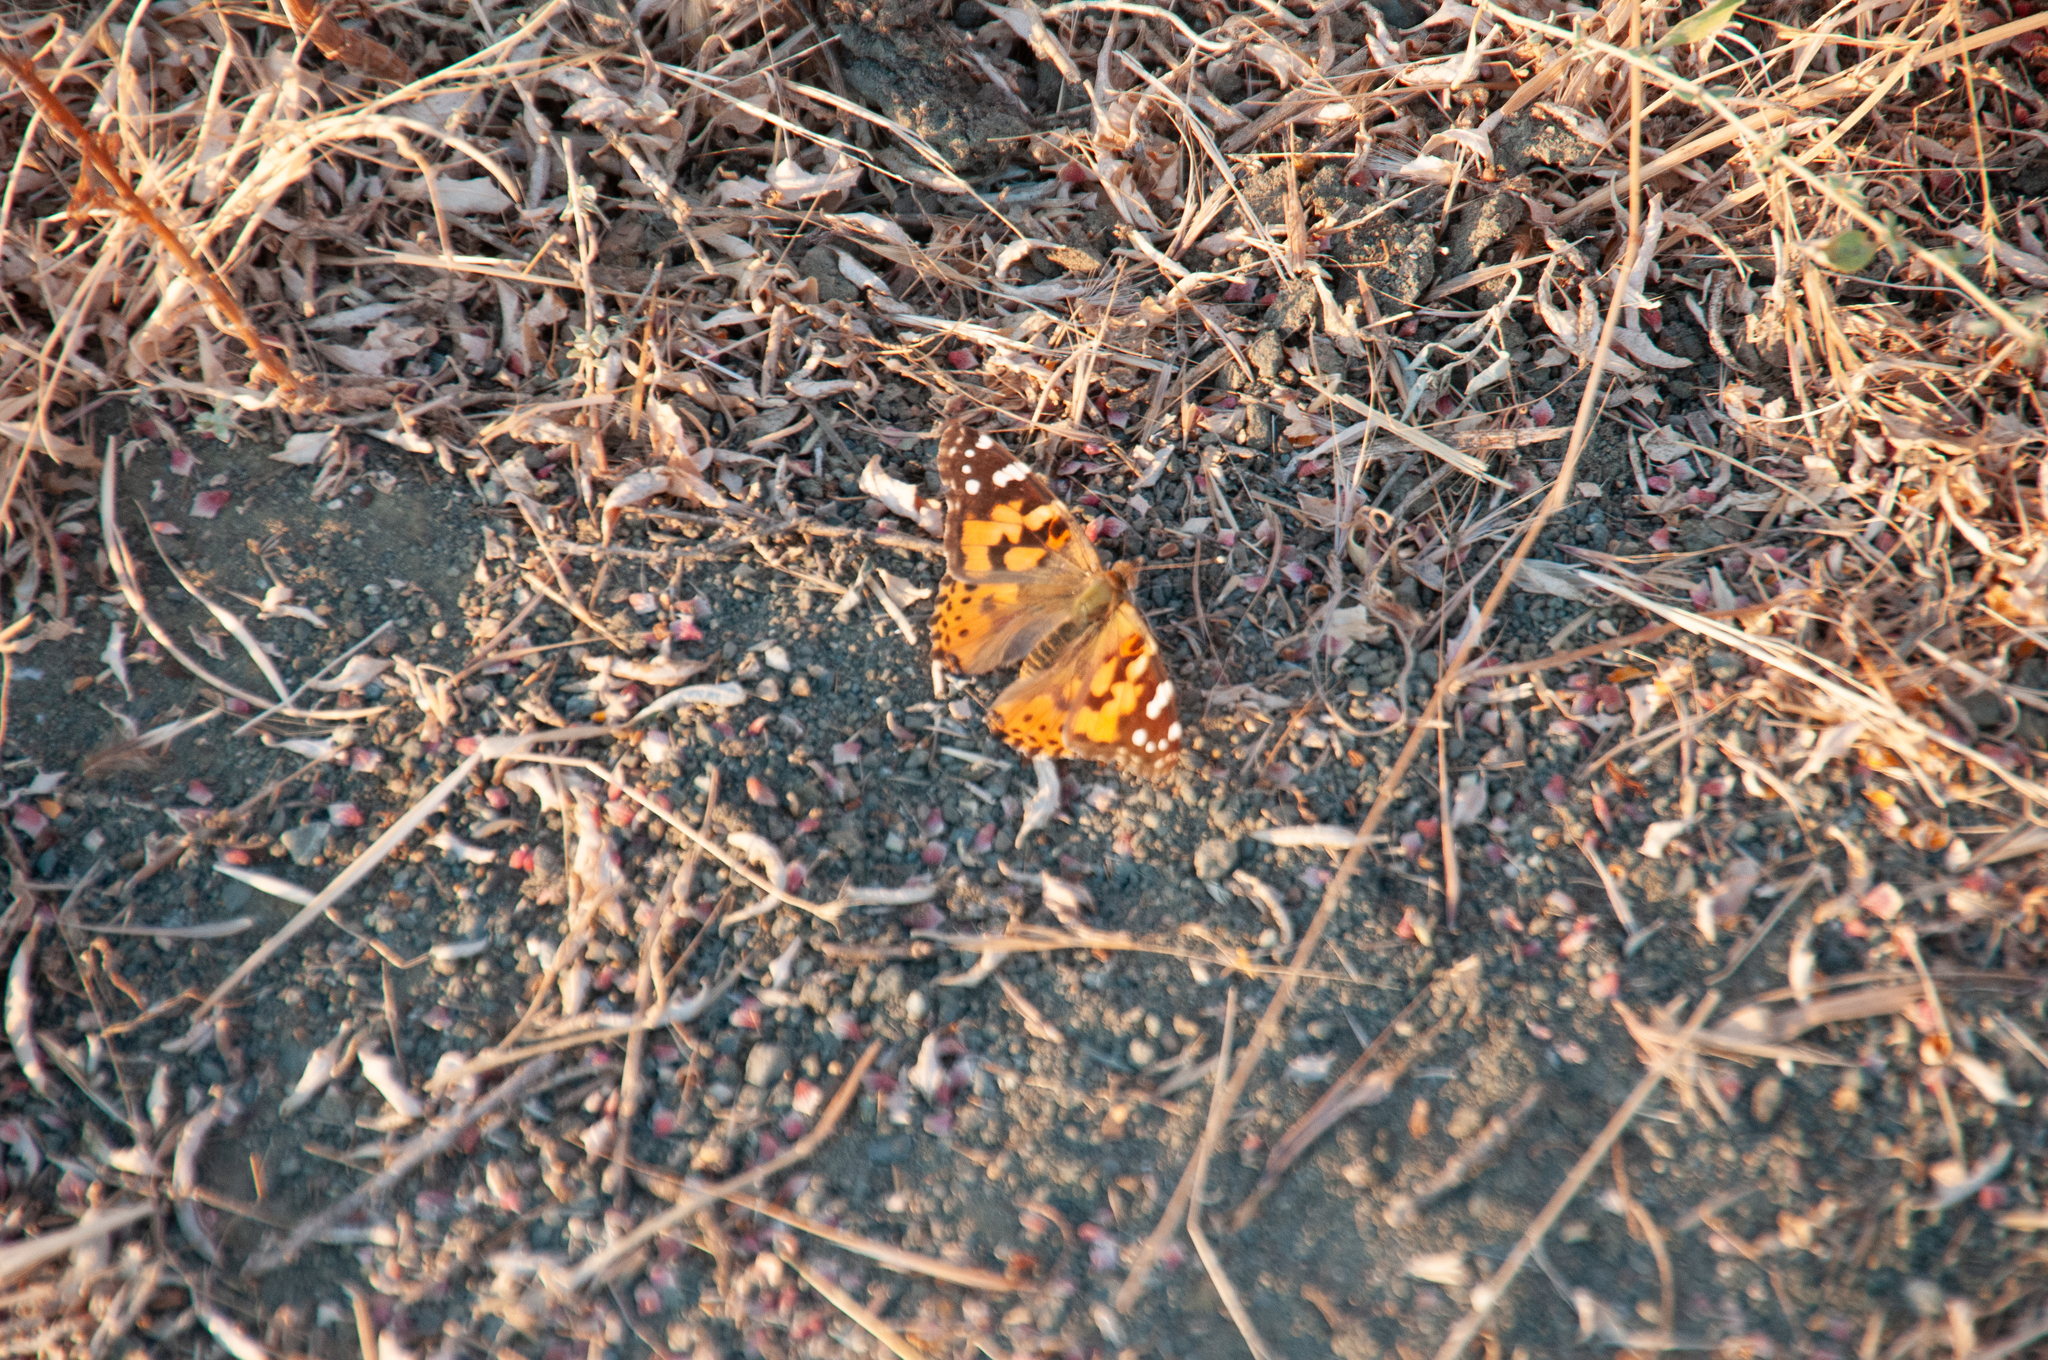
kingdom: Animalia
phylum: Arthropoda
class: Insecta
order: Lepidoptera
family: Nymphalidae
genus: Vanessa
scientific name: Vanessa cardui
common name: Painted lady
